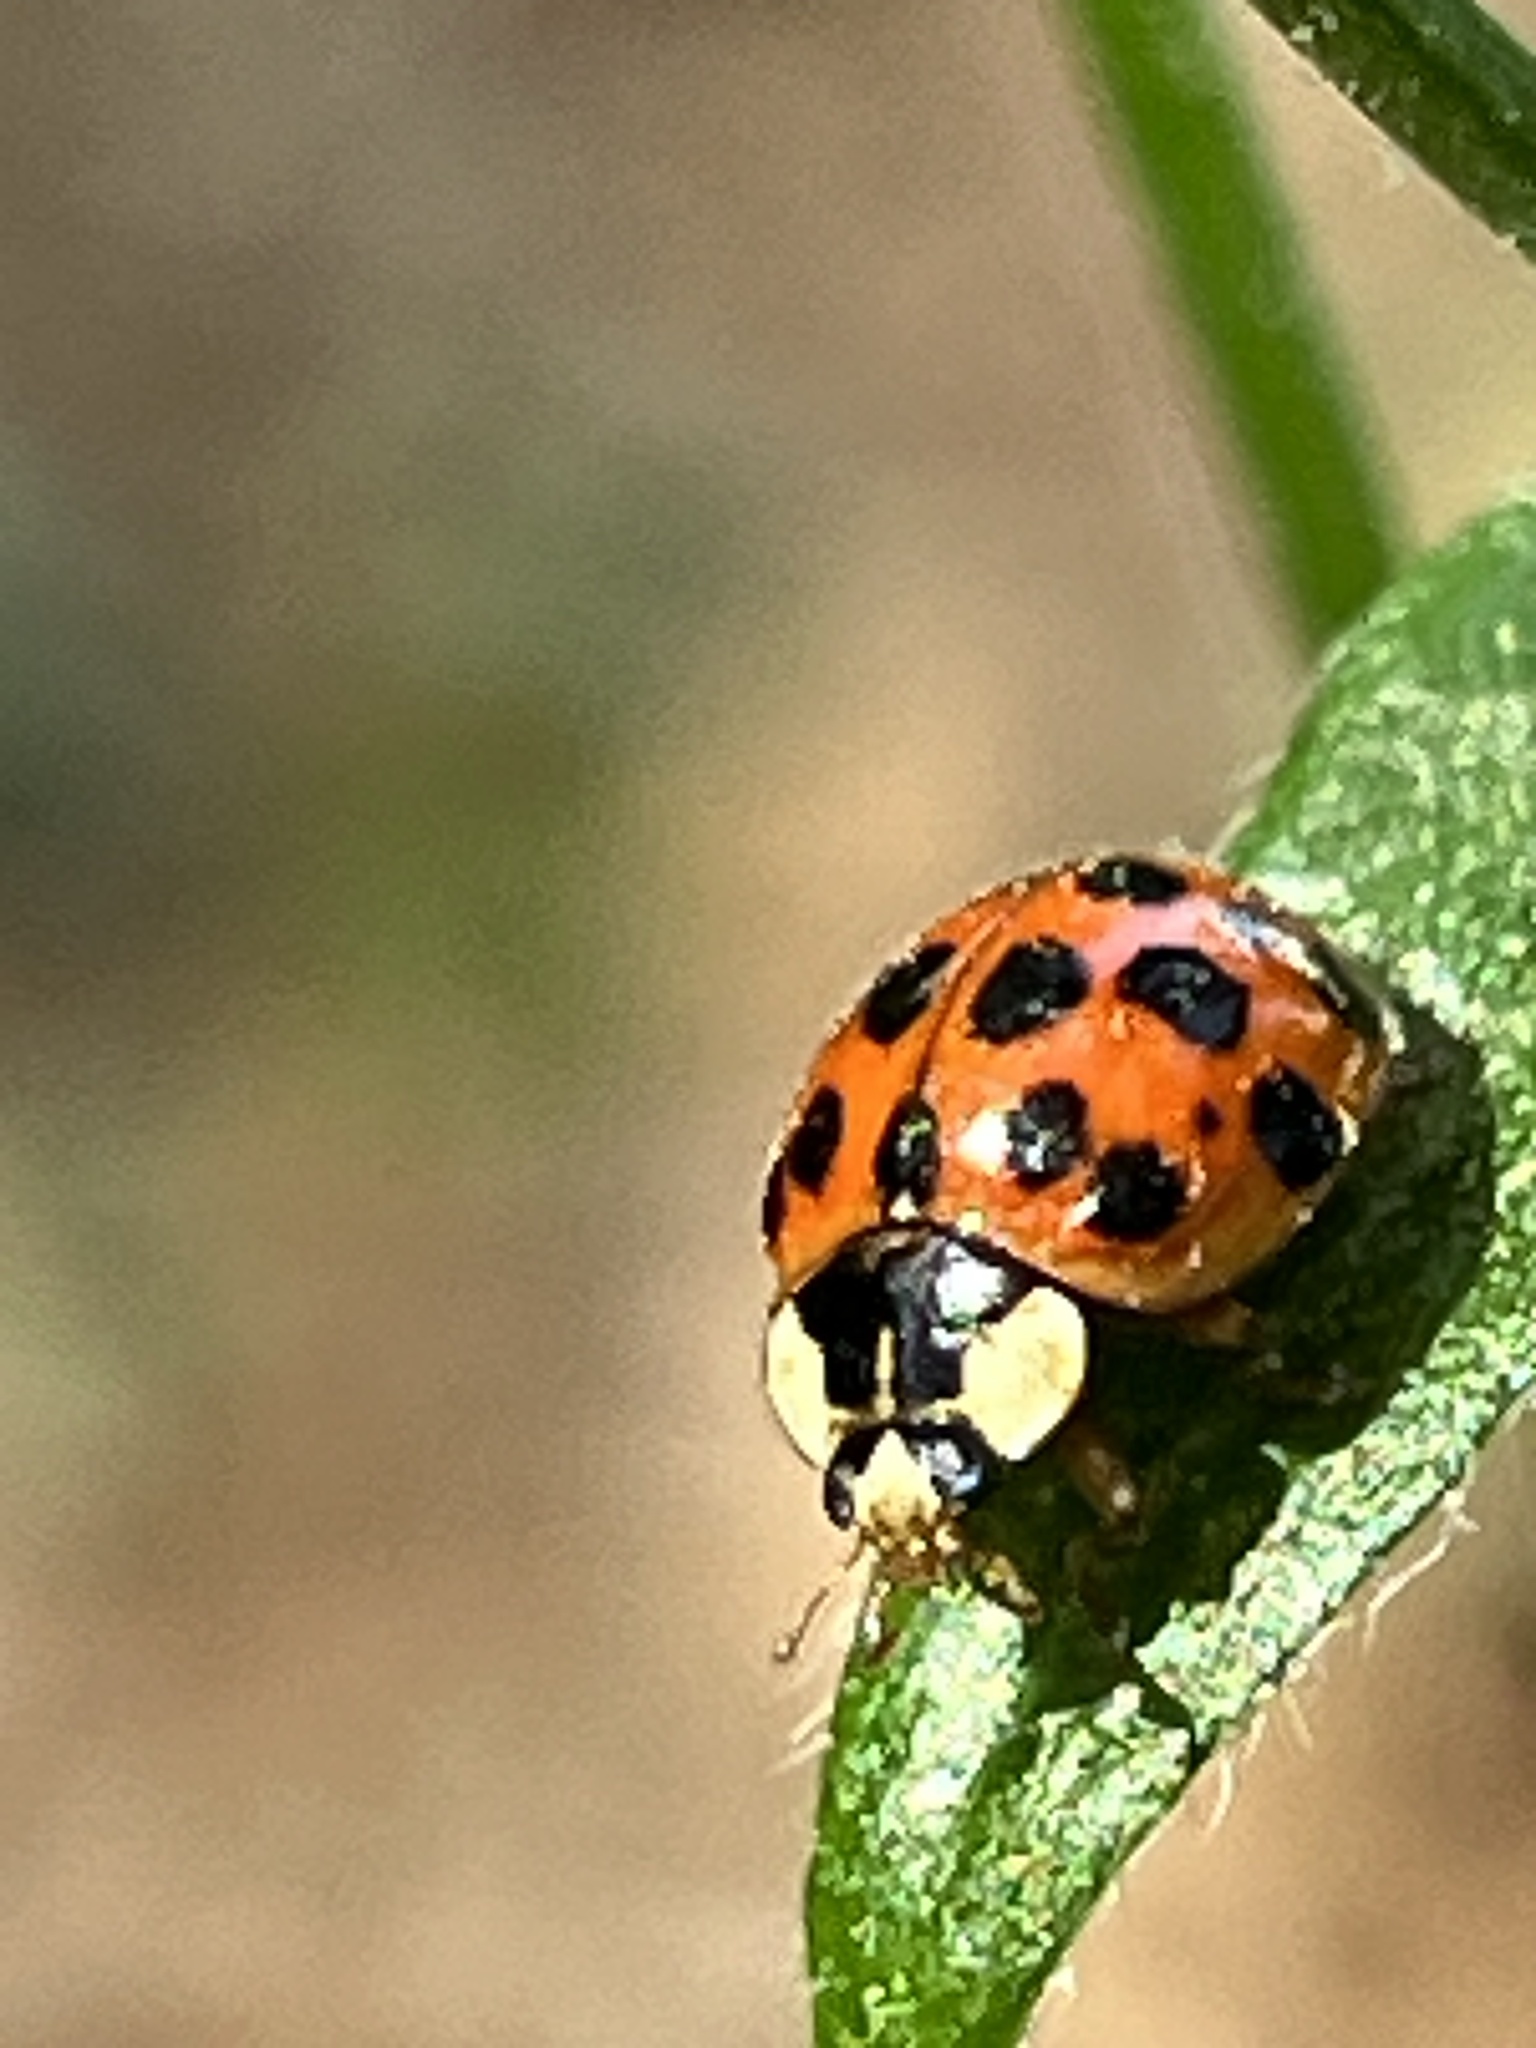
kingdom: Animalia
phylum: Arthropoda
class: Insecta
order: Coleoptera
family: Coccinellidae
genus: Harmonia
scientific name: Harmonia axyridis
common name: Harlequin ladybird
